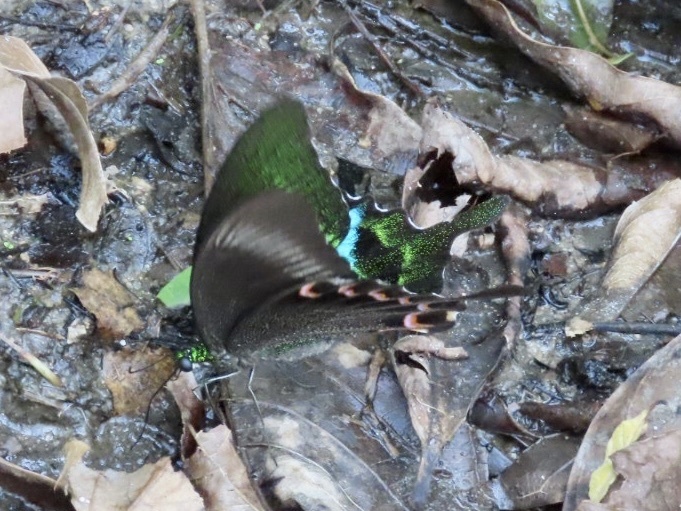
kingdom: Animalia
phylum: Arthropoda
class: Insecta
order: Lepidoptera
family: Papilionidae
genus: Papilio
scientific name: Papilio paris
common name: Paris peacock
